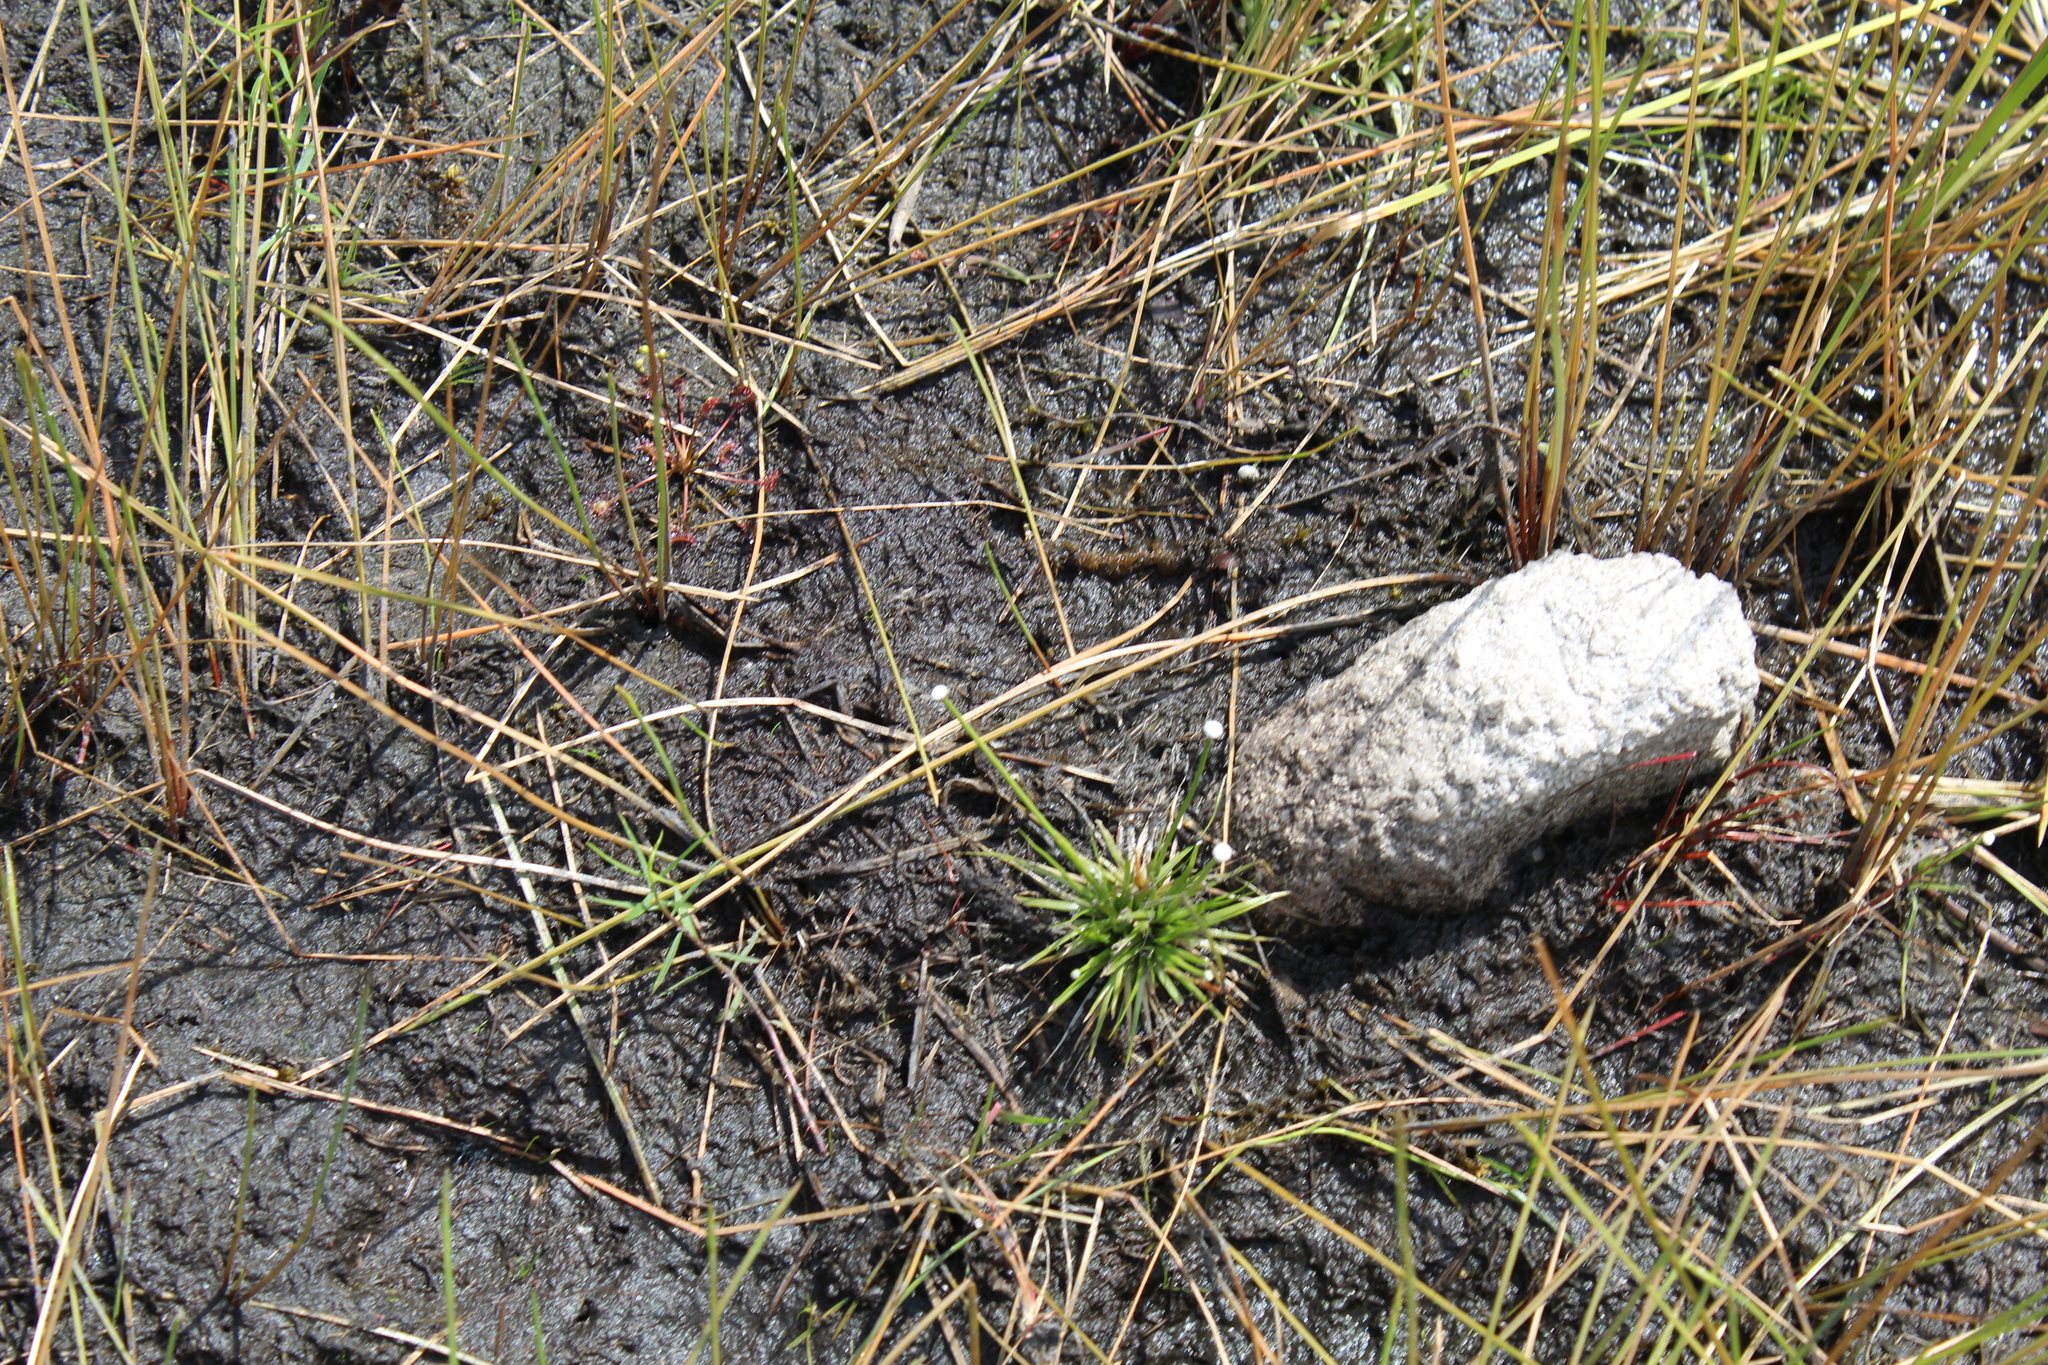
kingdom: Plantae
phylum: Tracheophyta
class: Liliopsida
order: Poales
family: Eriocaulaceae
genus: Eriocaulon
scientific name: Eriocaulon aquaticum
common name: Pipewort
